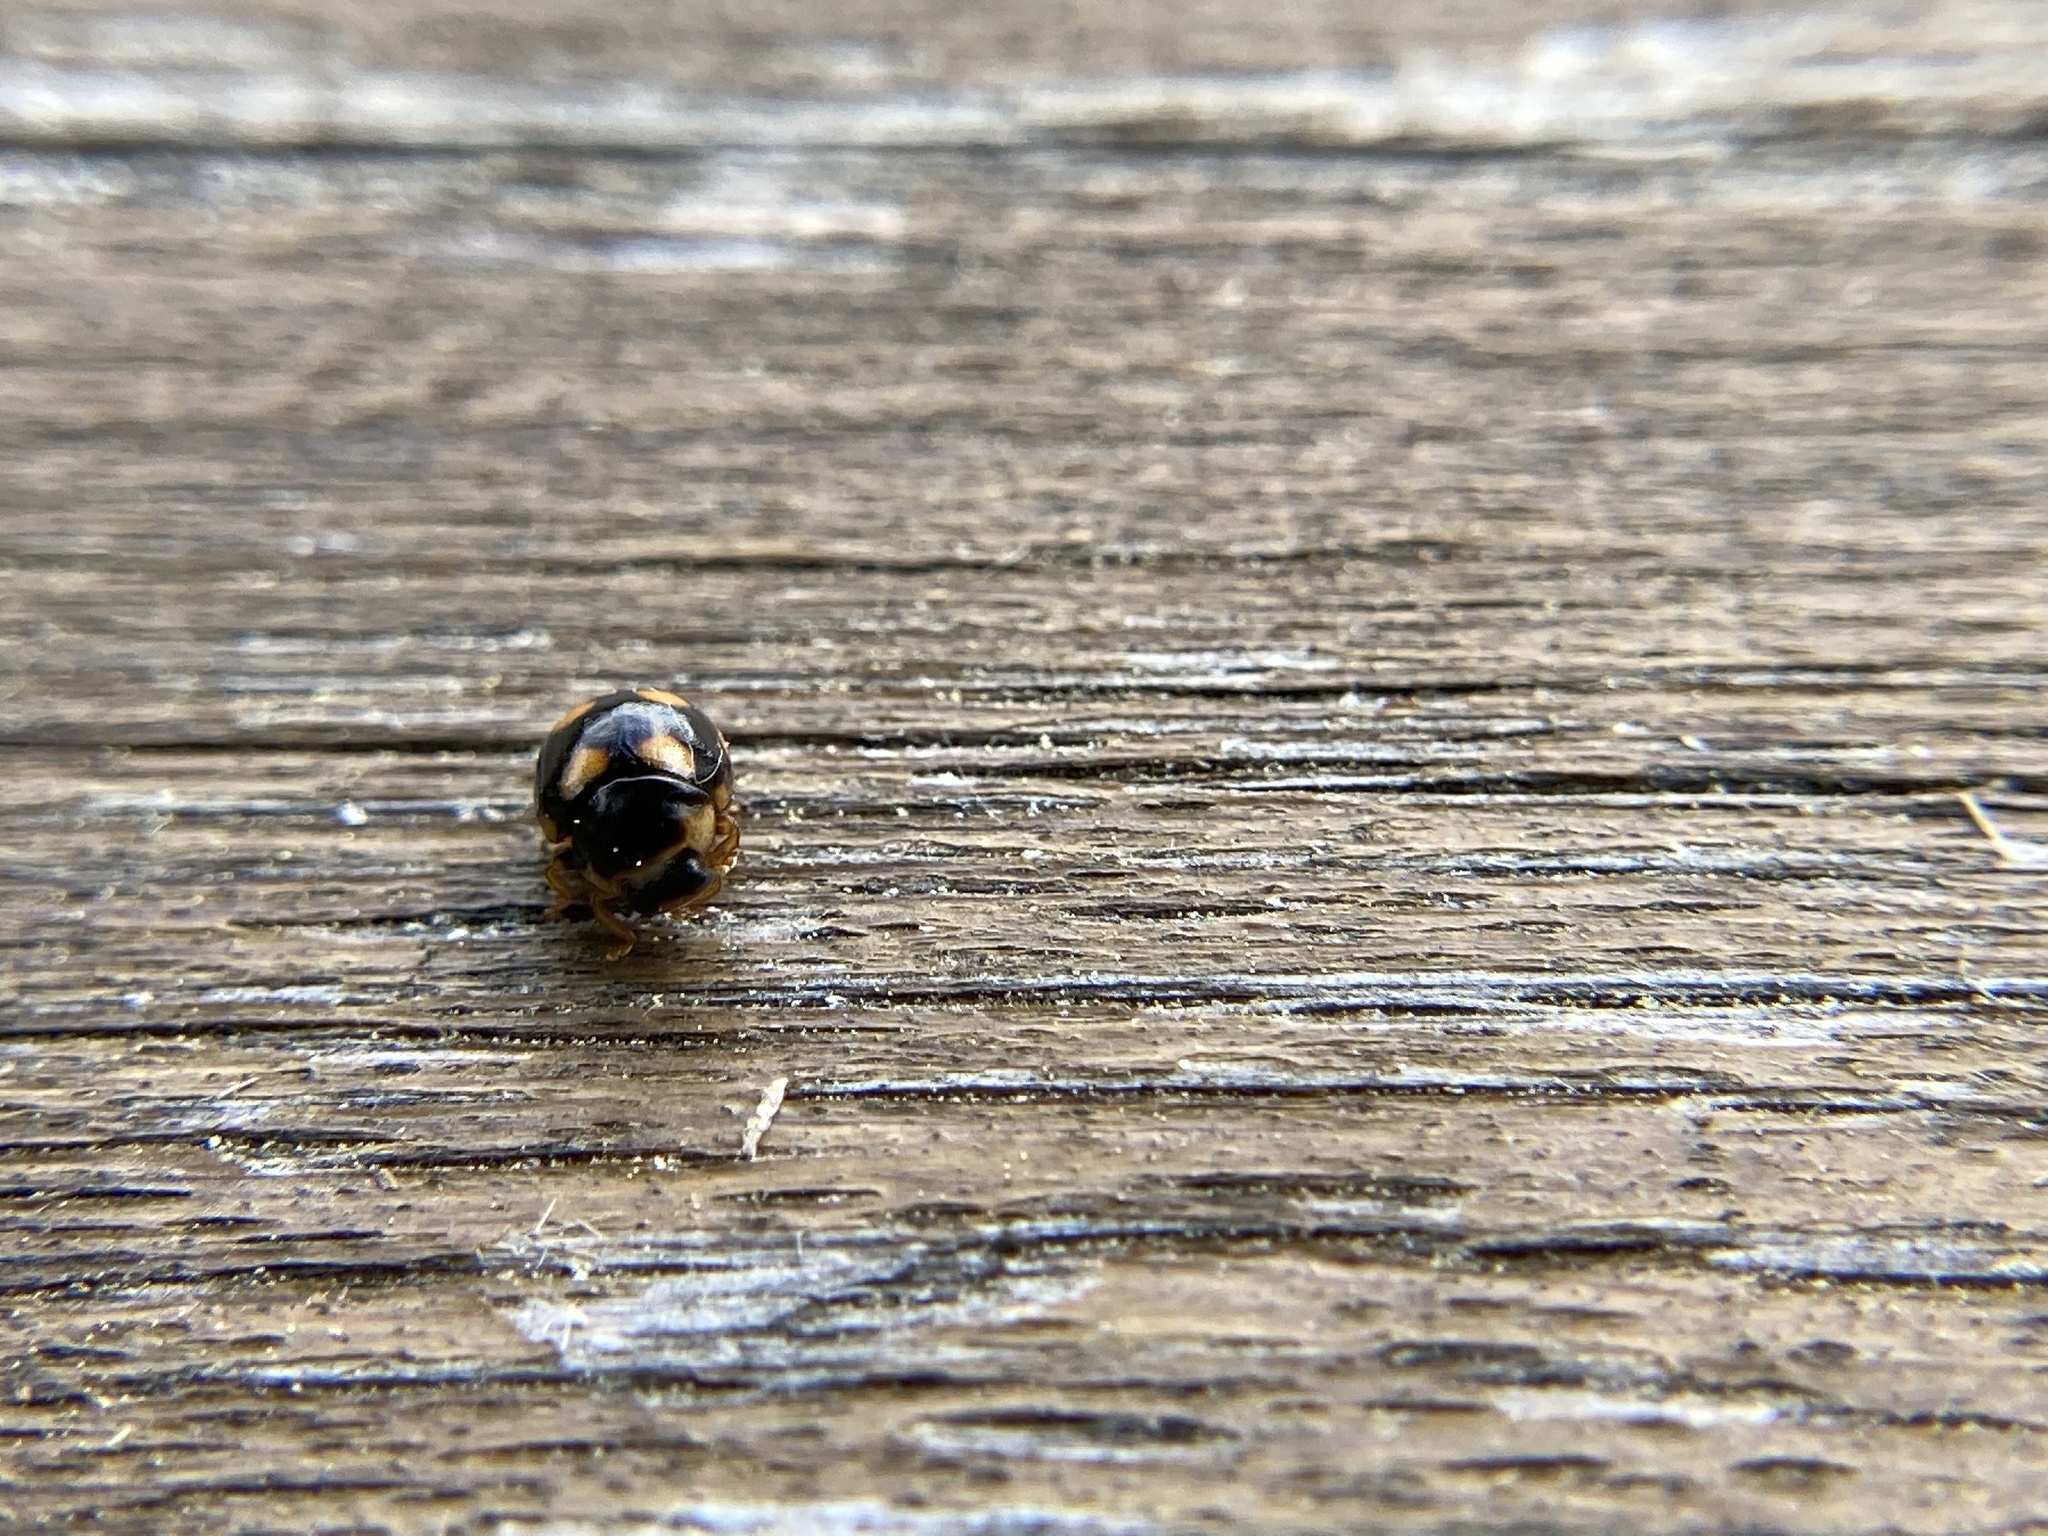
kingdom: Animalia
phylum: Arthropoda
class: Insecta
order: Coleoptera
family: Coccinellidae
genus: Brachiacantha
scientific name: Brachiacantha ursina
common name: Ursine spurleg lady beetle
